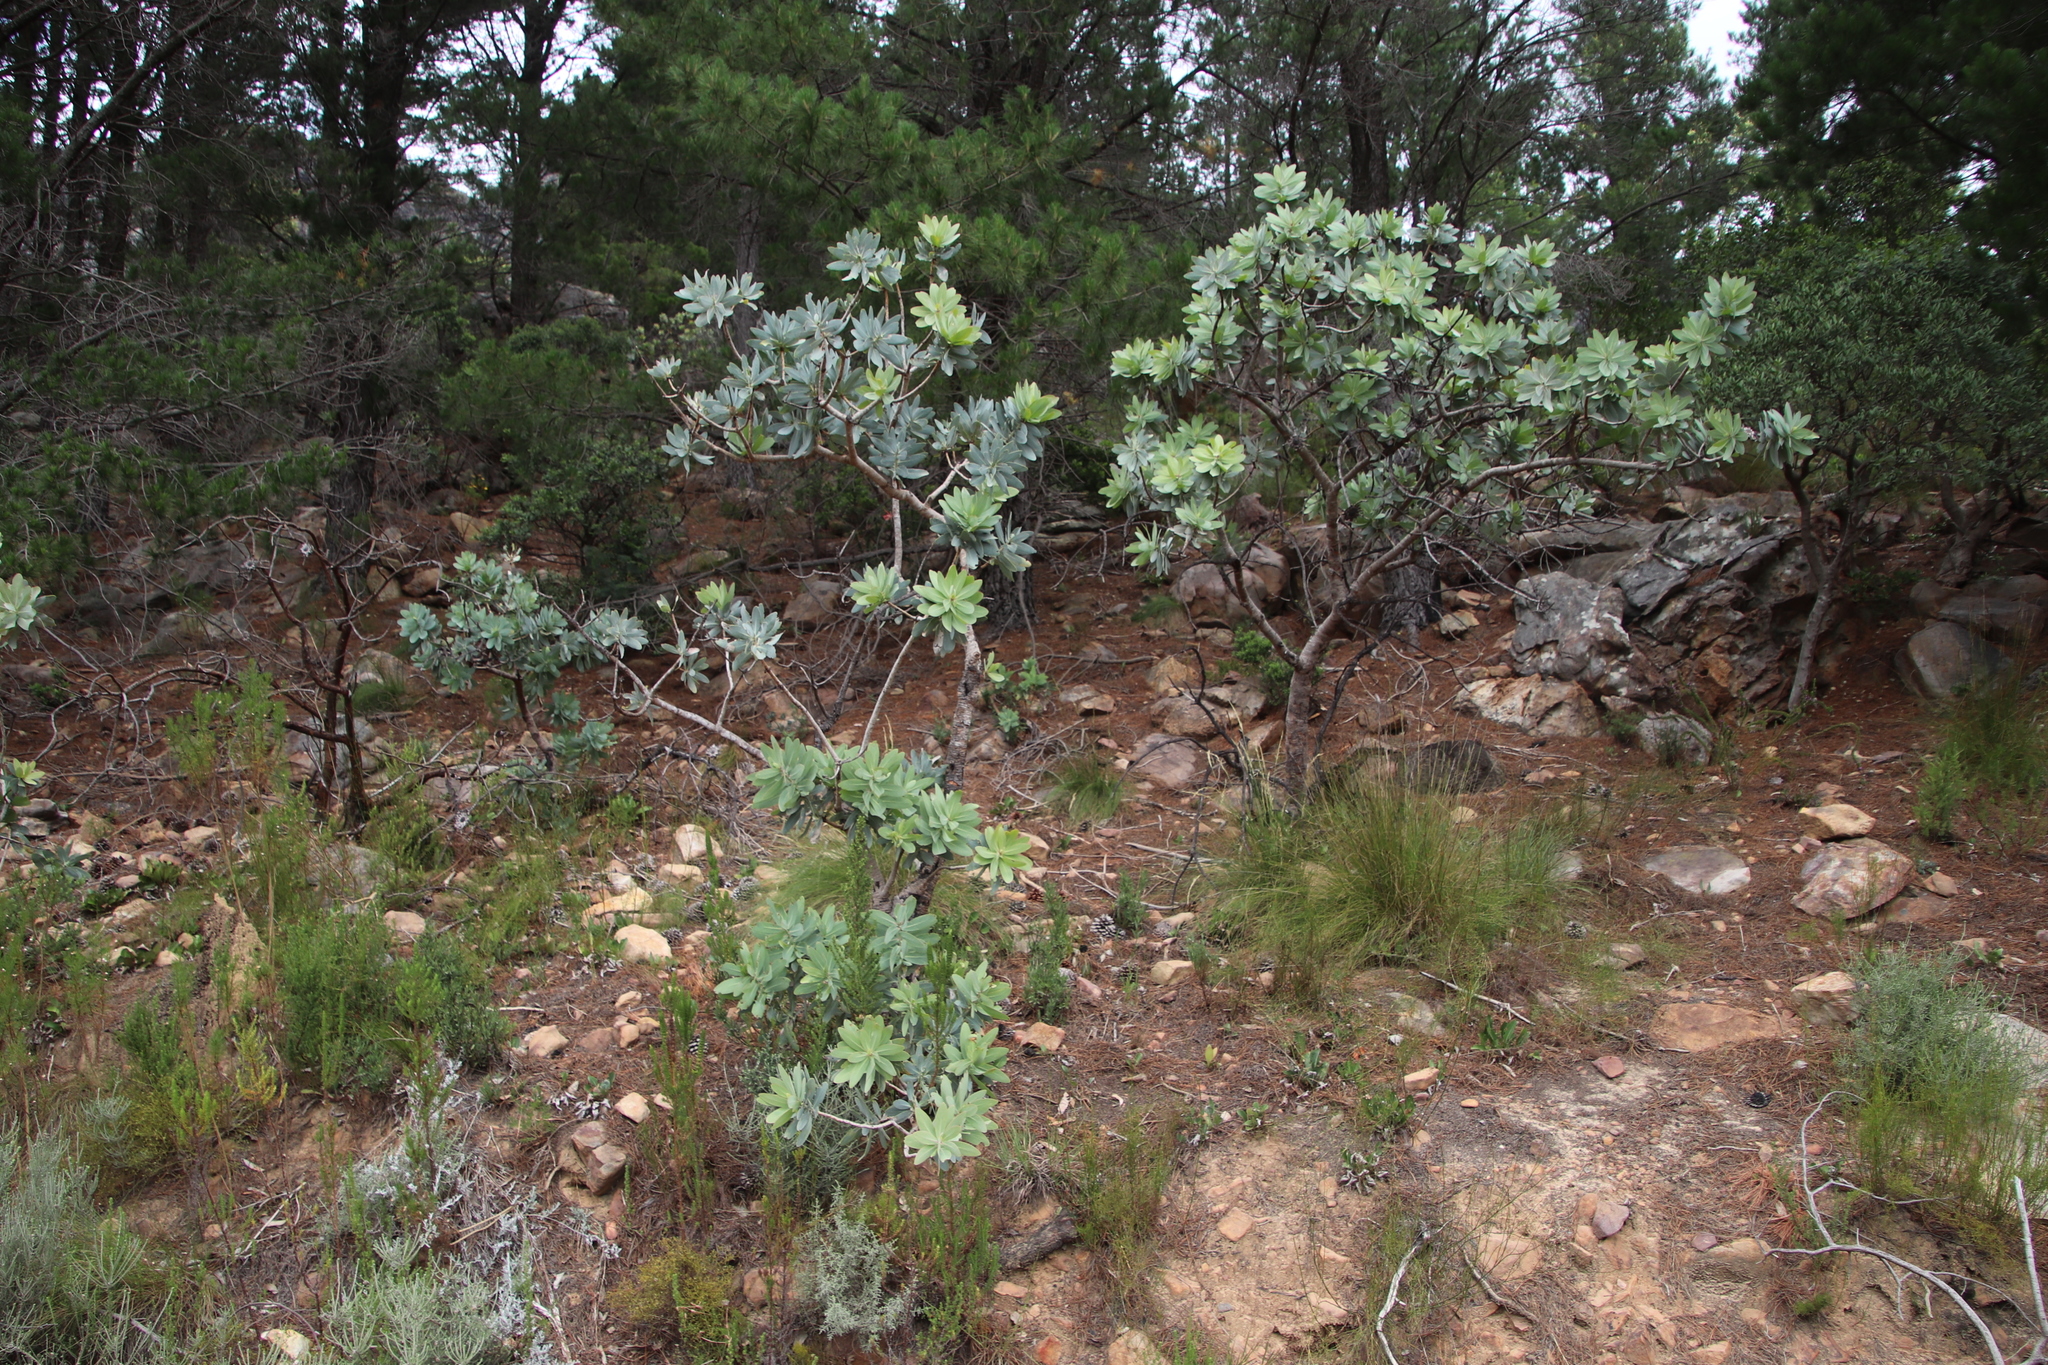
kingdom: Plantae
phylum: Tracheophyta
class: Magnoliopsida
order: Proteales
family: Proteaceae
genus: Protea
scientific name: Protea nitida
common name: Tree protea
